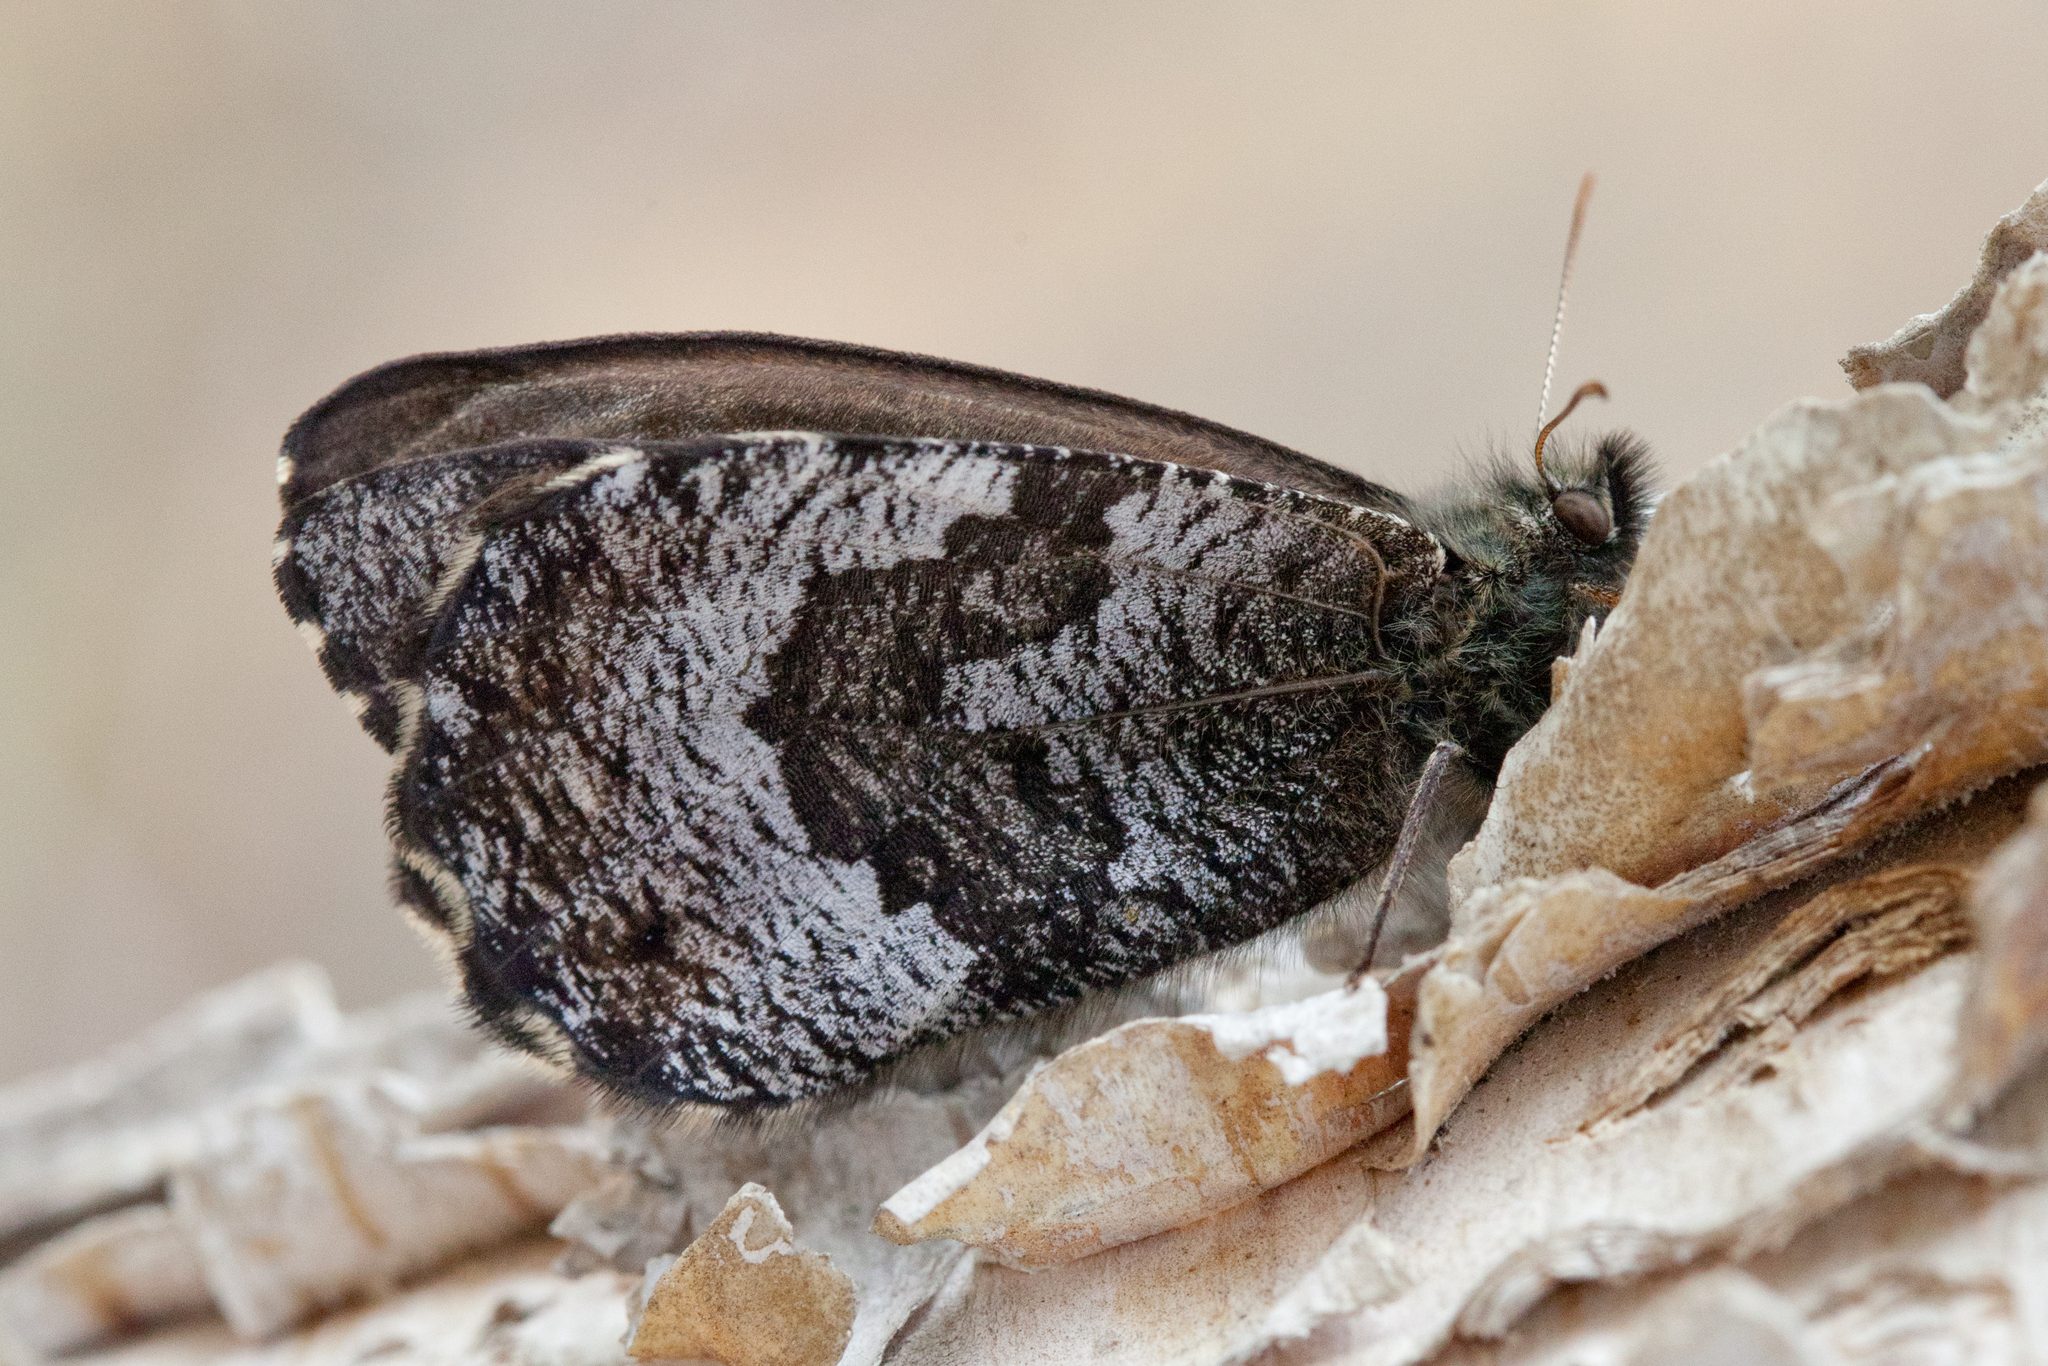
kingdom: Animalia
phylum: Arthropoda
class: Insecta
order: Lepidoptera
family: Nymphalidae
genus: Oeneis
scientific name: Oeneis jutta
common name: Baltic grayling
